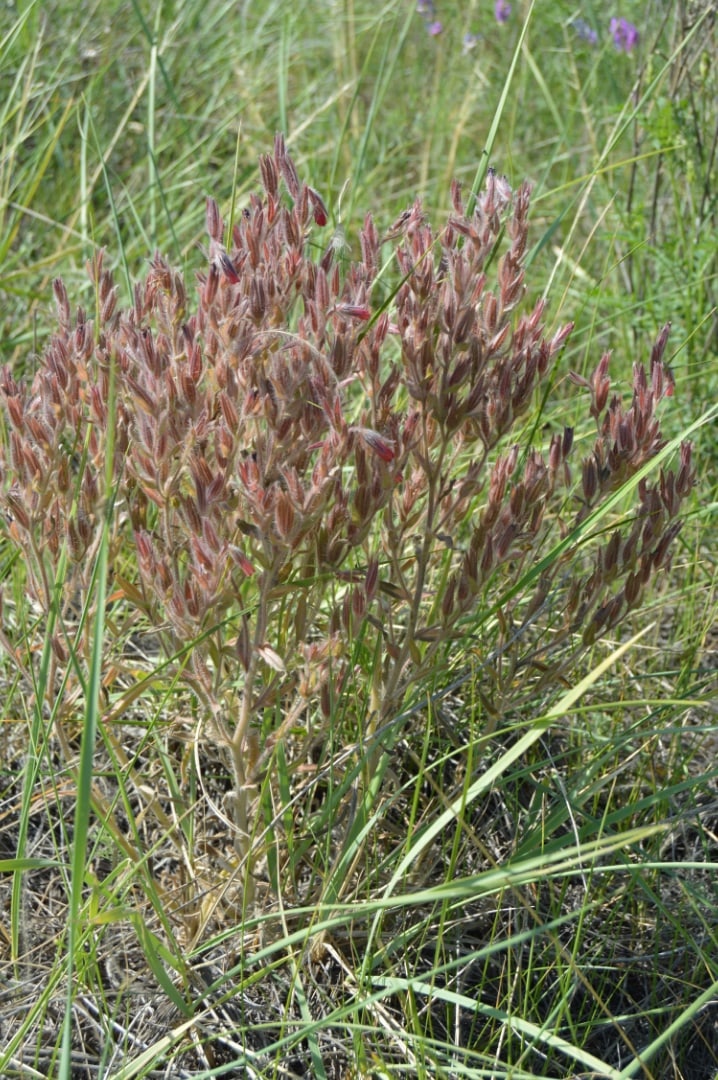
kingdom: Plantae
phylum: Tracheophyta
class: Magnoliopsida
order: Boraginales
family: Boraginaceae
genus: Onosma
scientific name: Onosma polychroma
